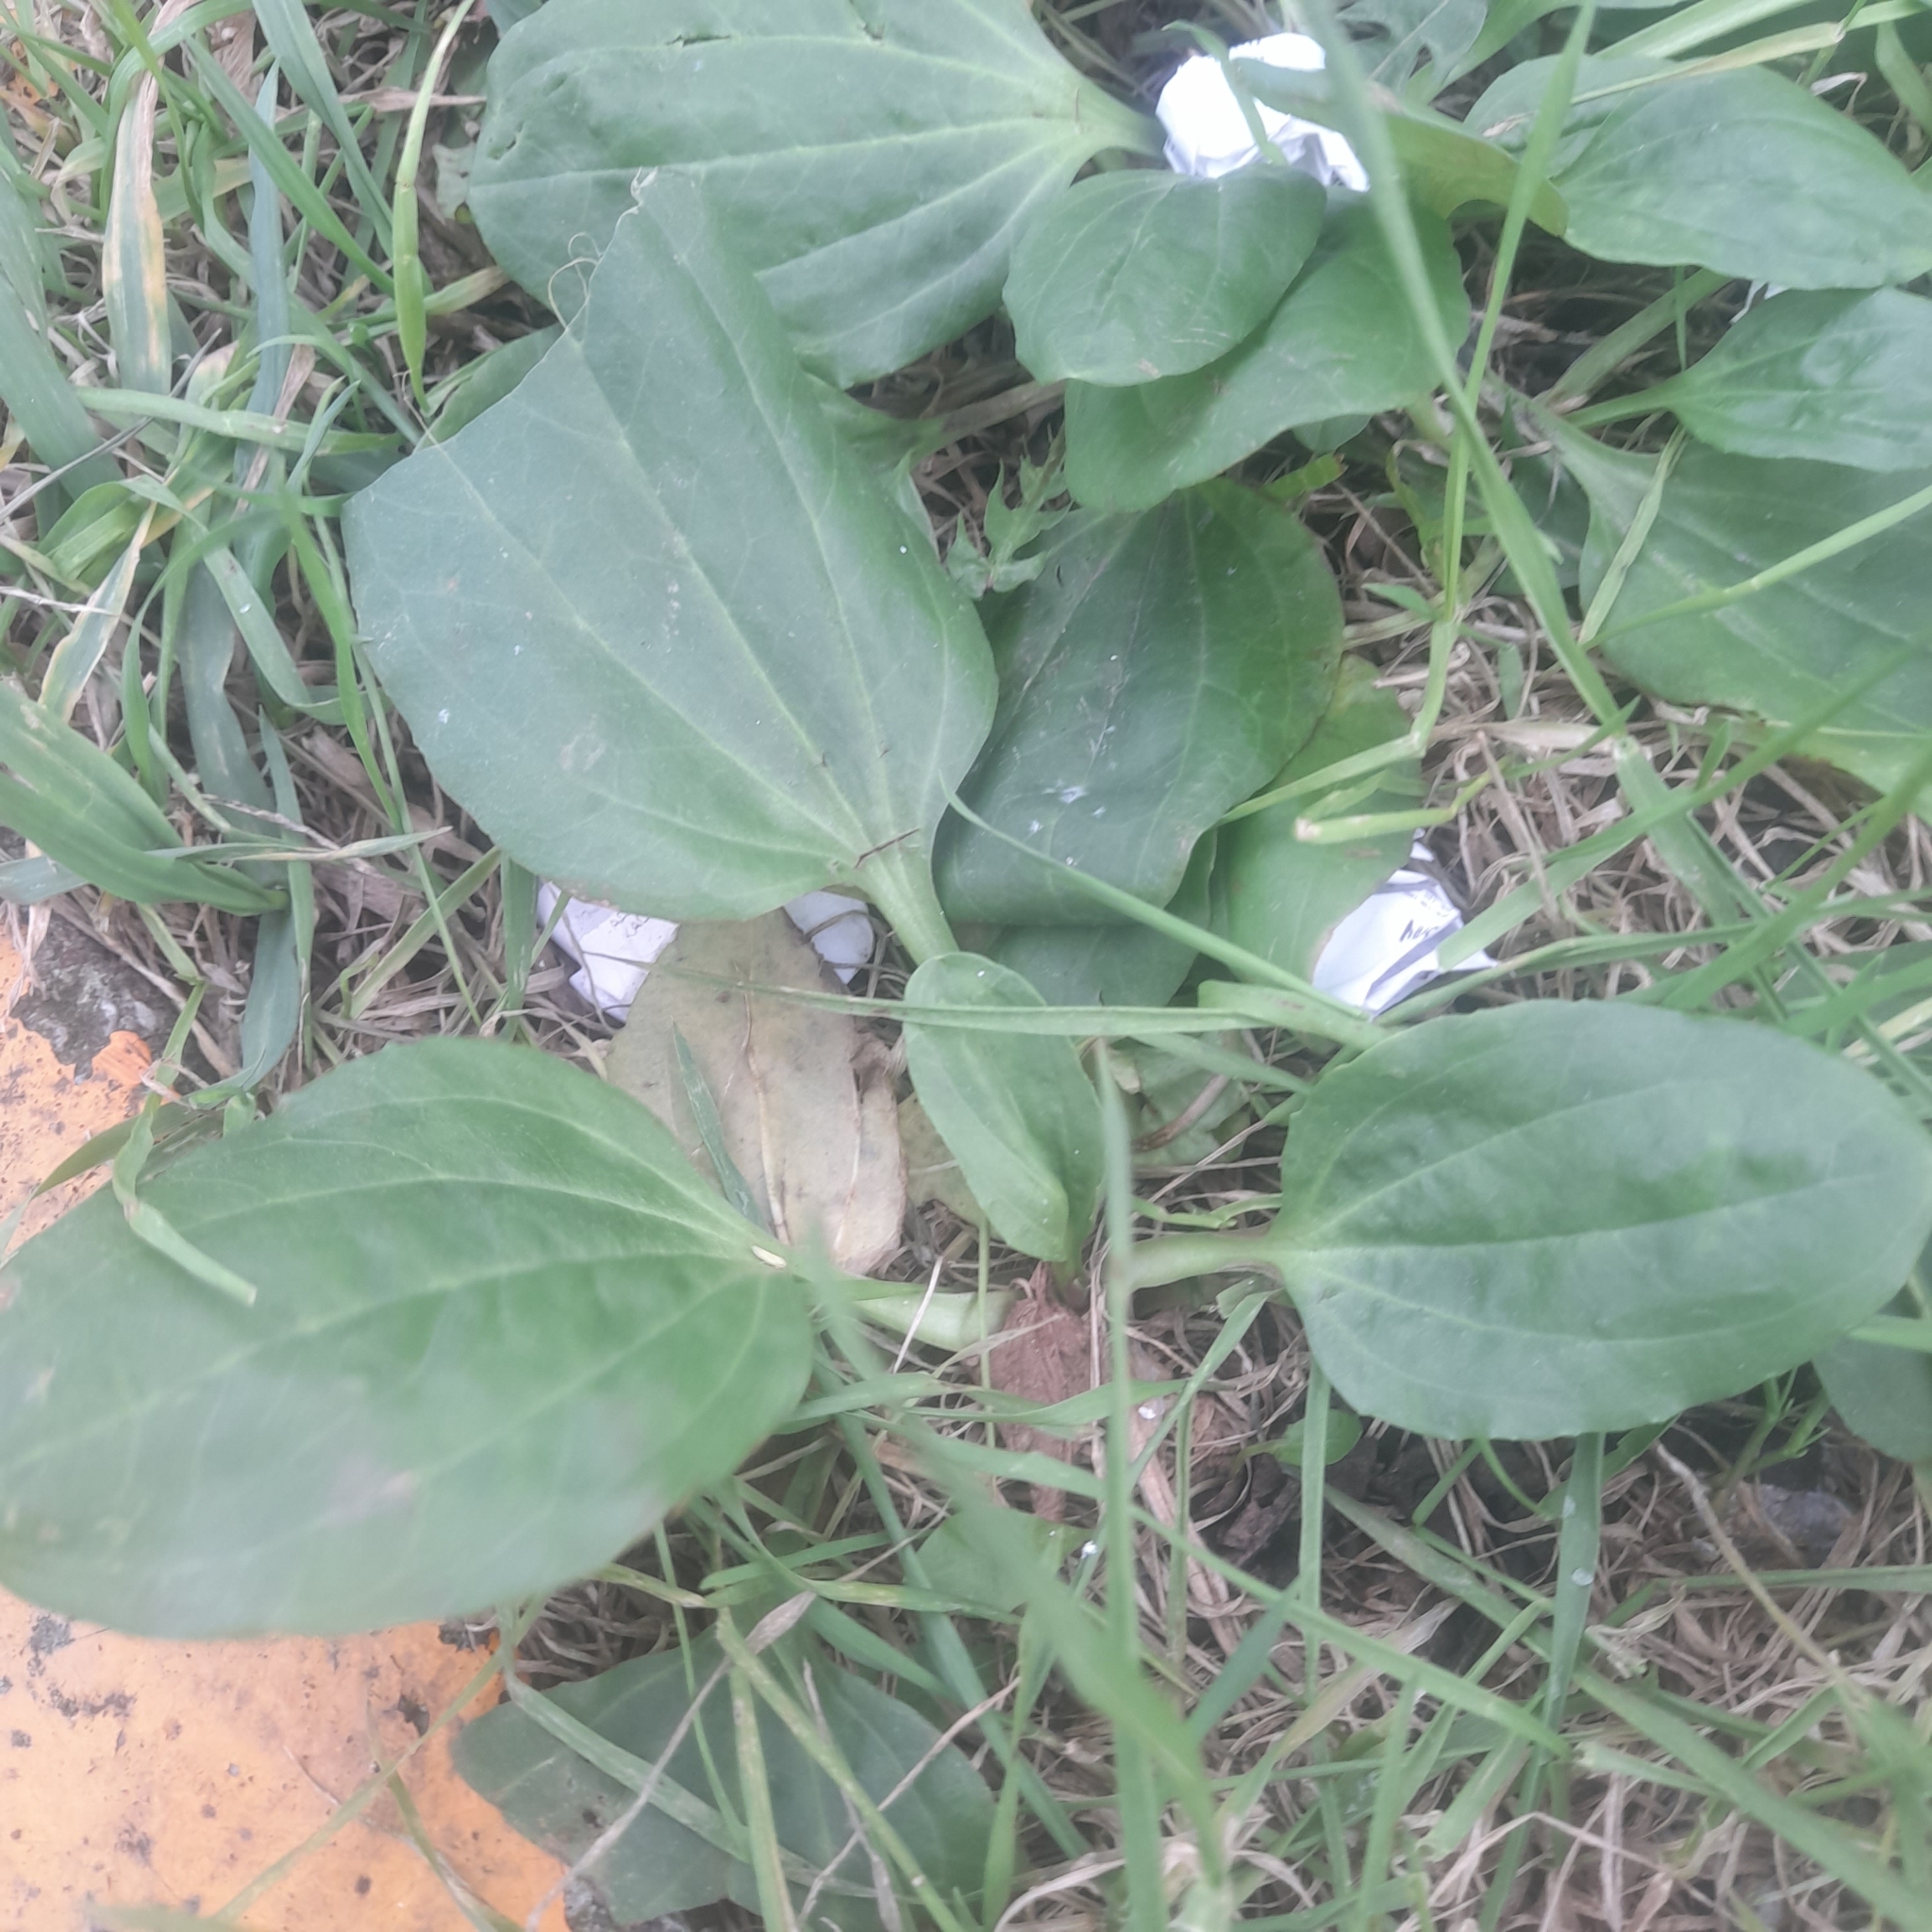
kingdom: Plantae
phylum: Tracheophyta
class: Magnoliopsida
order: Lamiales
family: Plantaginaceae
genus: Plantago
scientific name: Plantago major
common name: Common plantain
